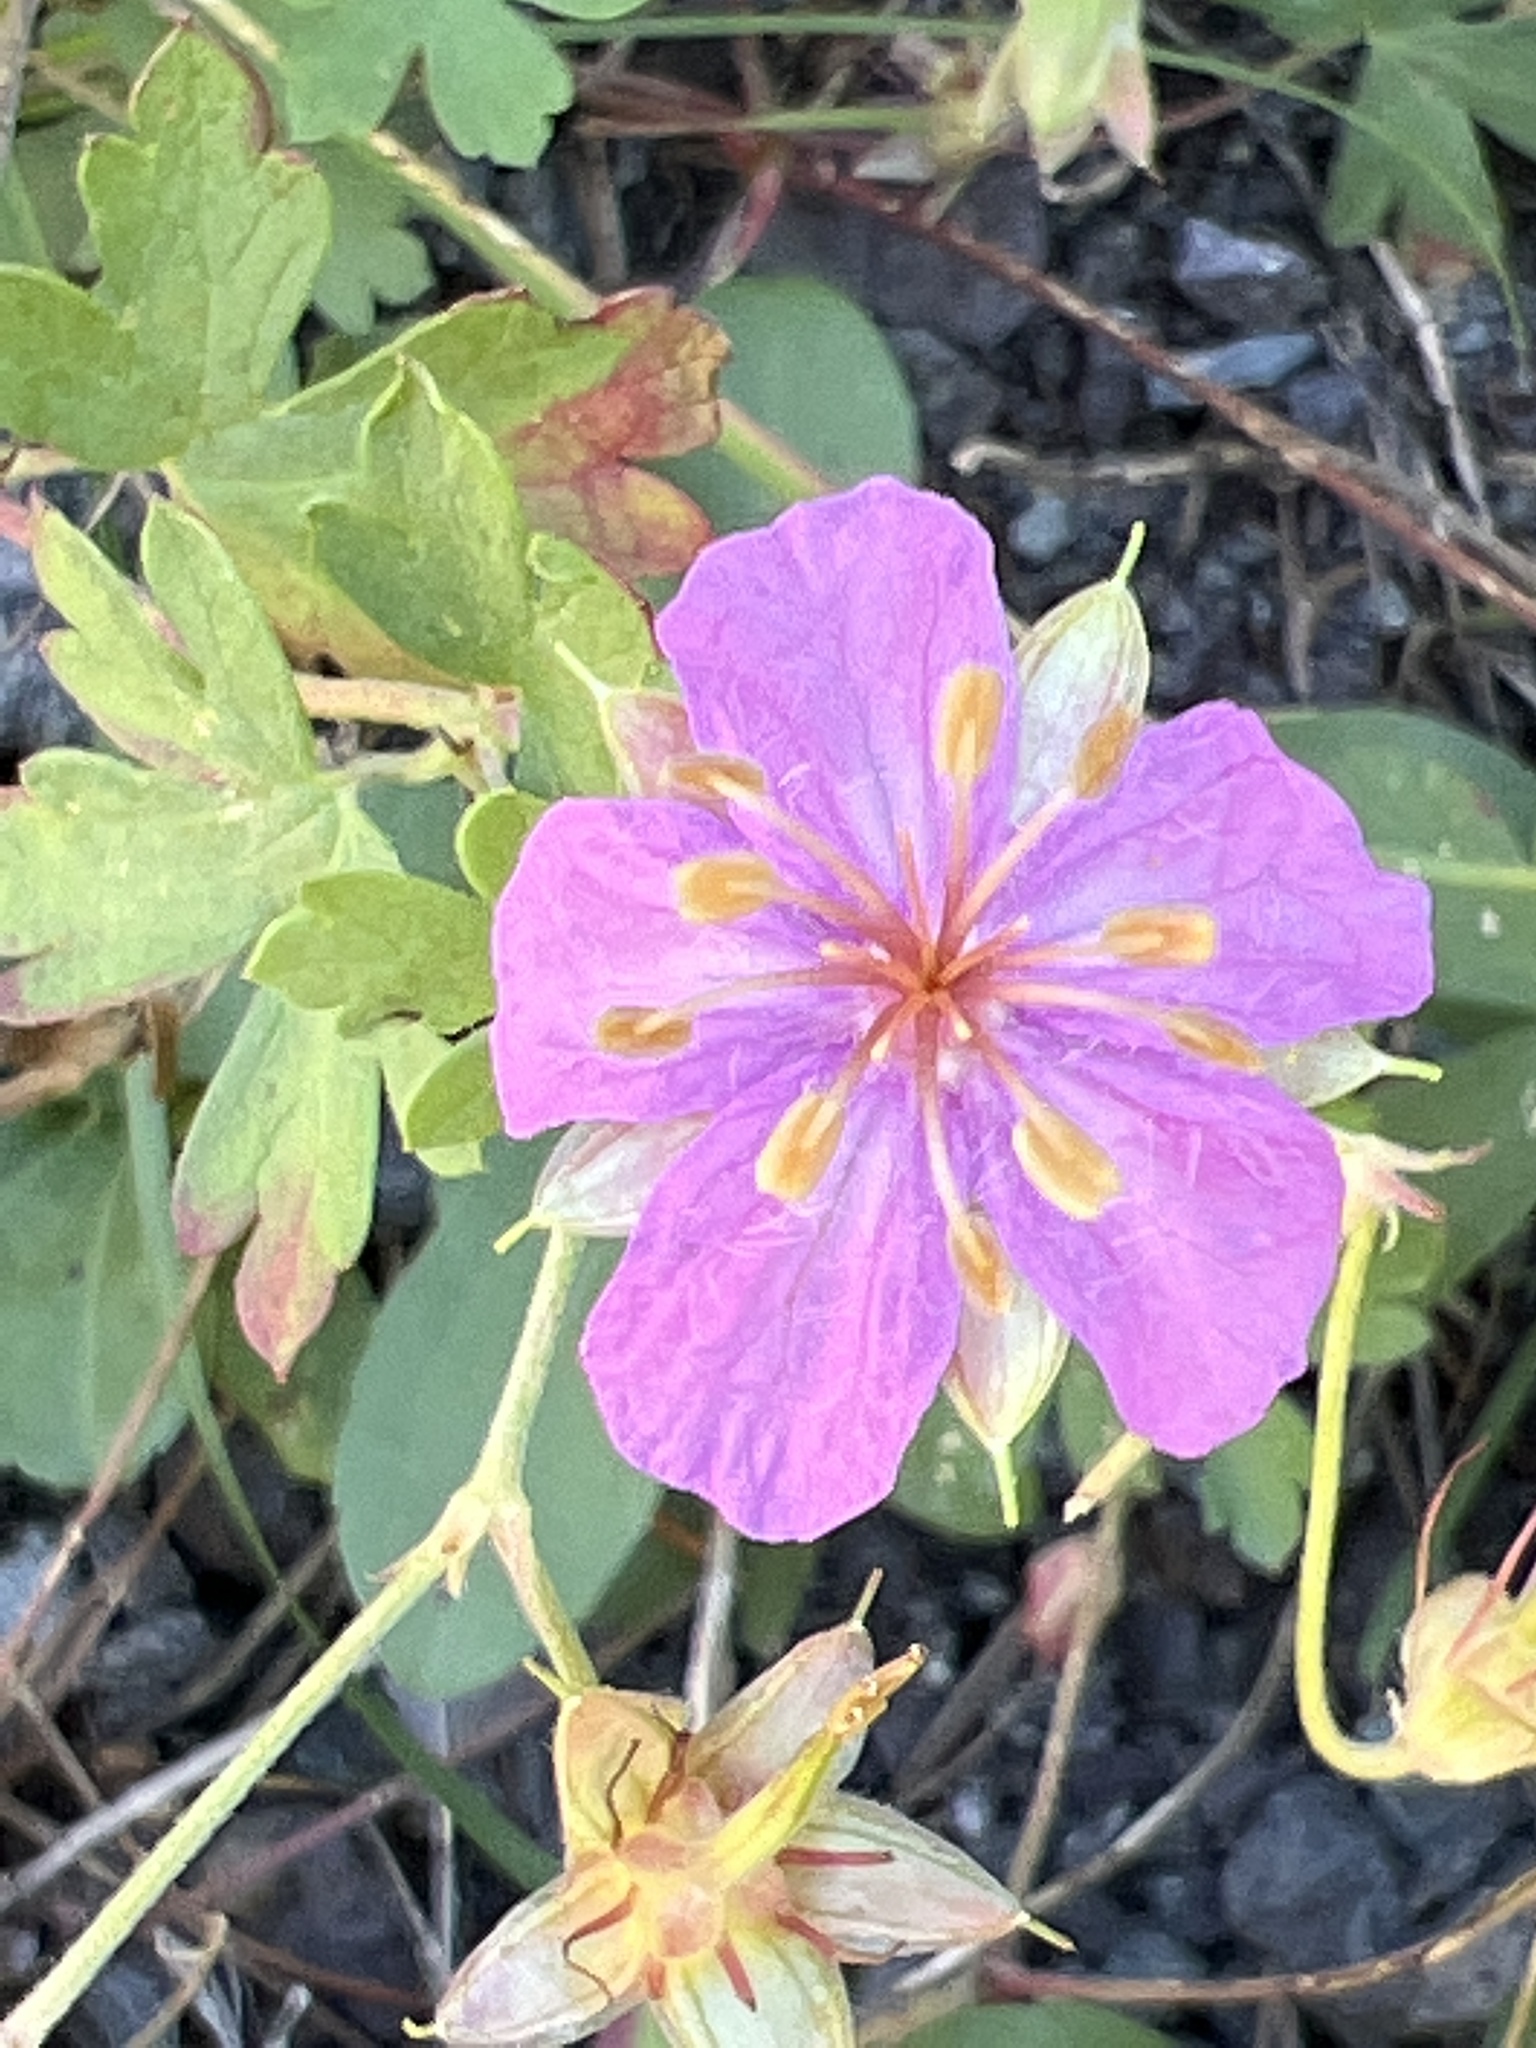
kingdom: Plantae
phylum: Tracheophyta
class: Magnoliopsida
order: Geraniales
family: Geraniaceae
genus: Geranium
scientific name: Geranium caespitosum
